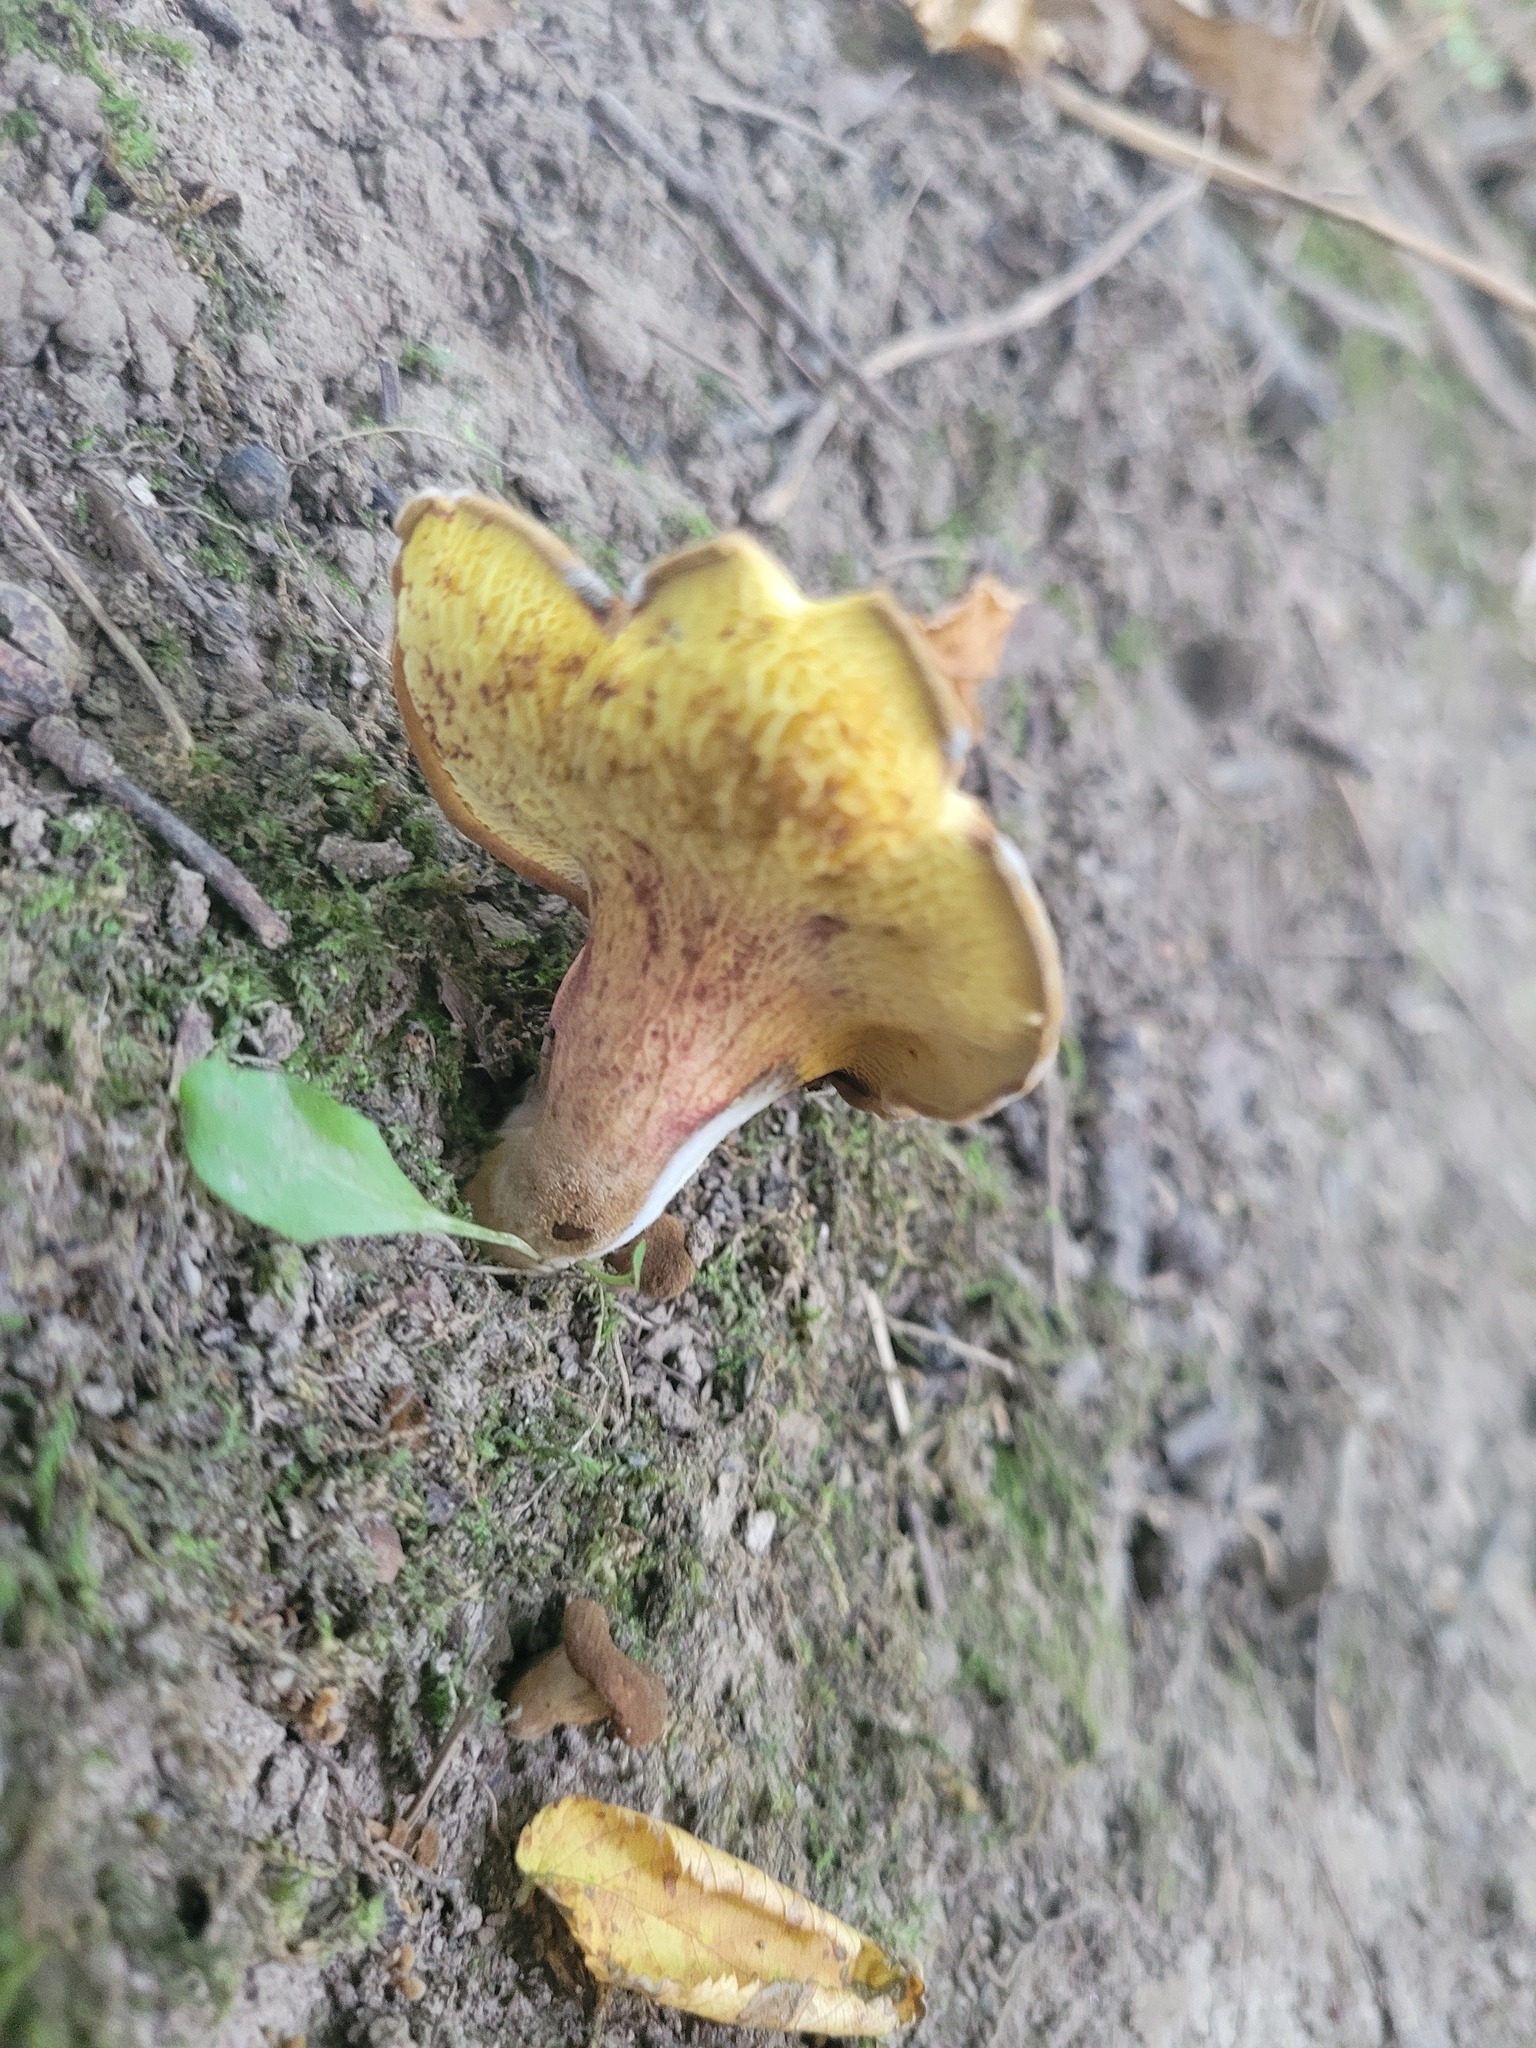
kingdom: Fungi
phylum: Basidiomycota
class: Agaricomycetes
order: Boletales
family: Boletinellaceae
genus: Boletinellus
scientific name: Boletinellus merulioides
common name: Ash tree bolete
